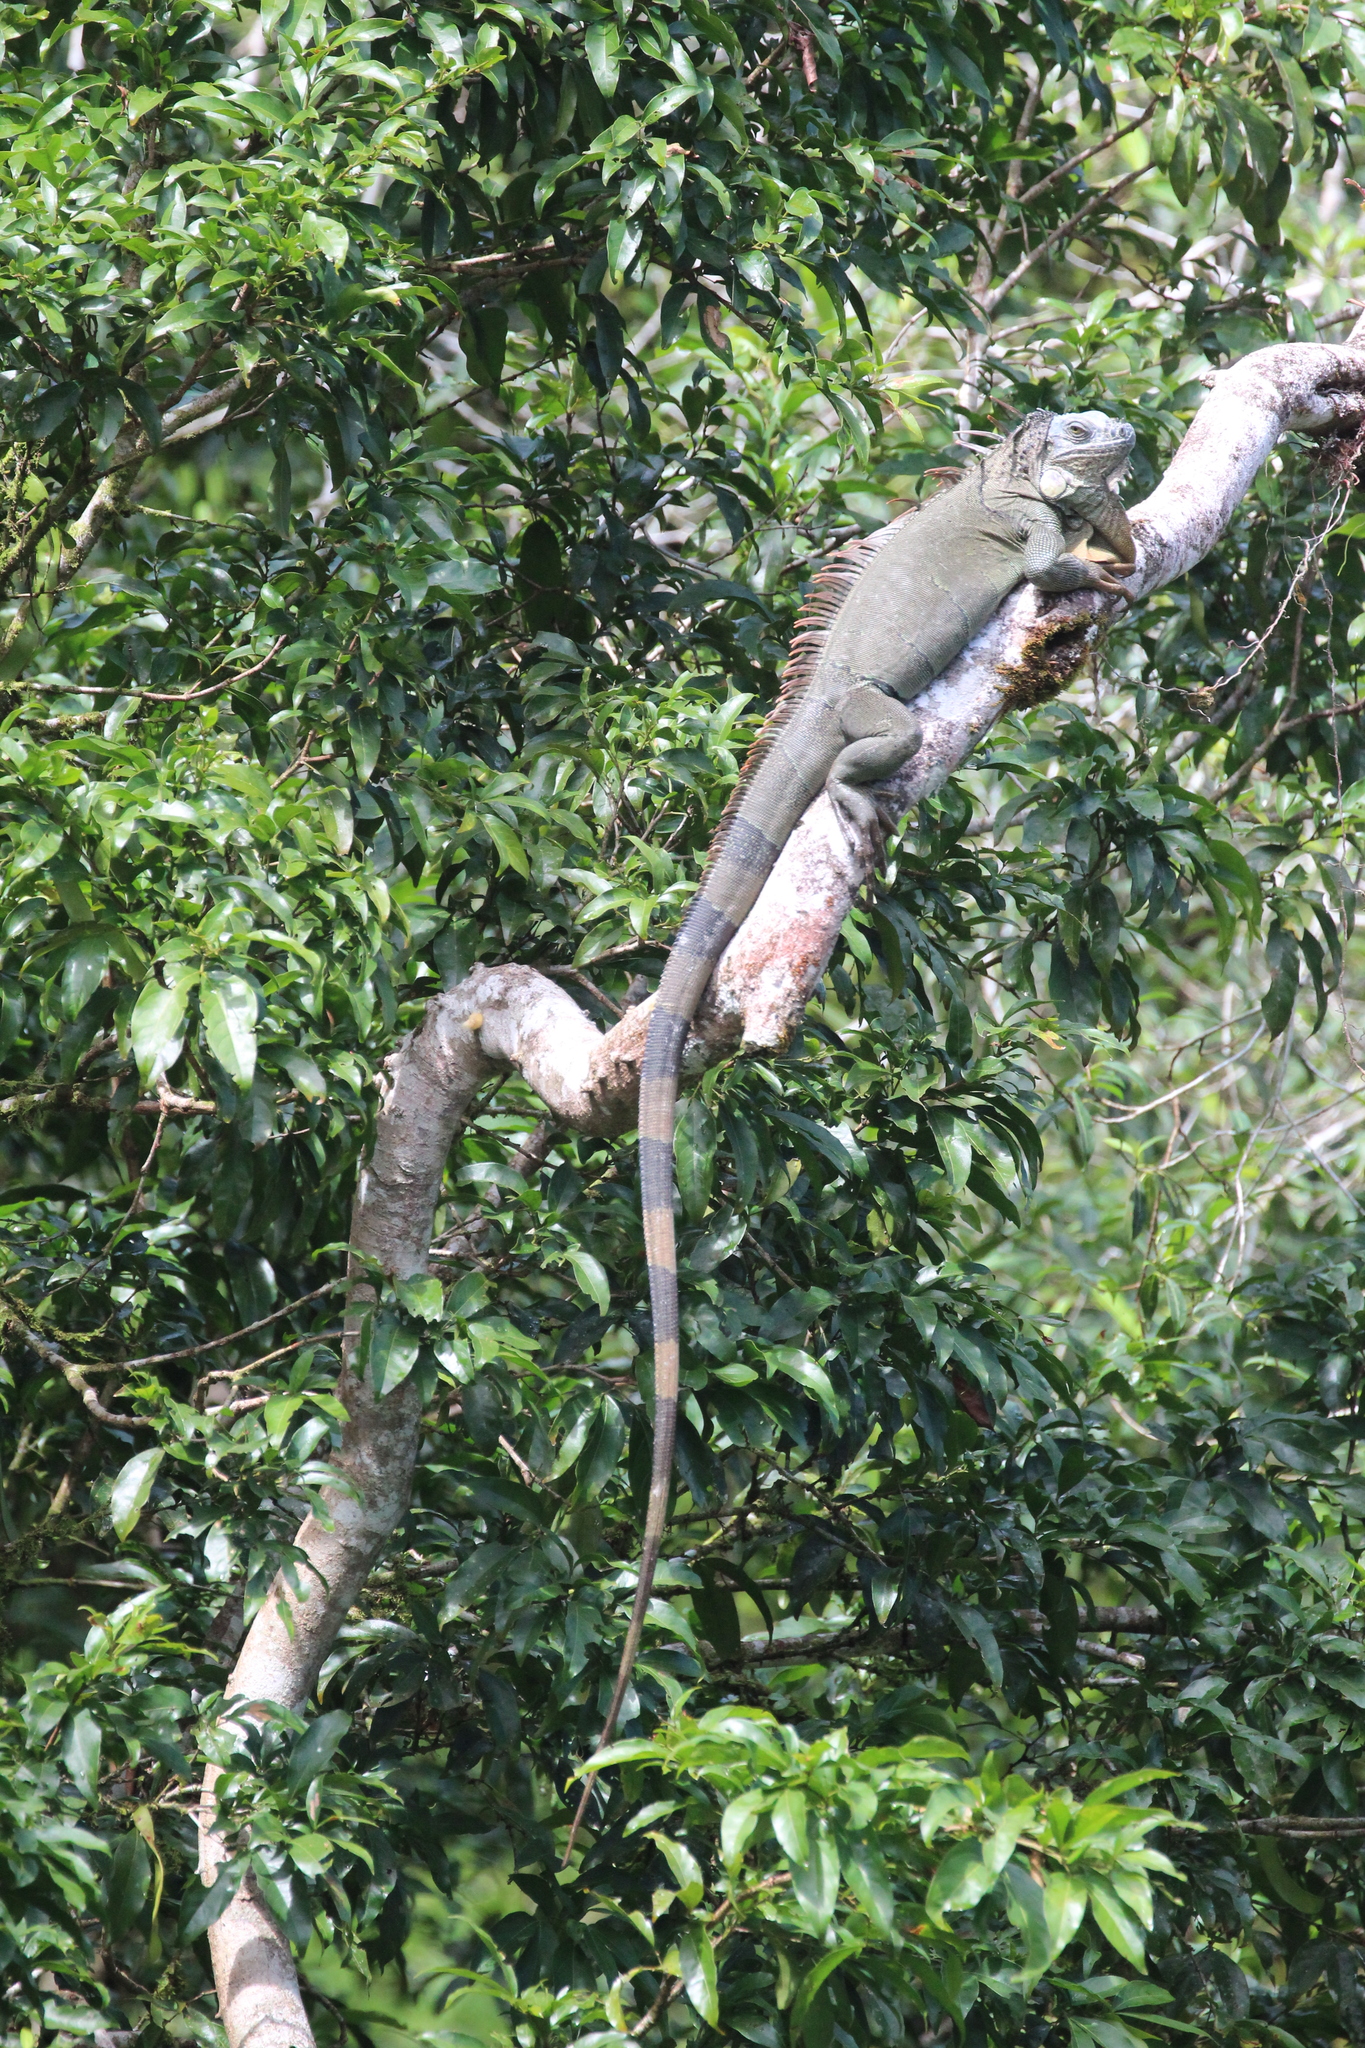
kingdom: Animalia
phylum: Chordata
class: Squamata
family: Iguanidae
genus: Iguana
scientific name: Iguana iguana
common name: Green iguana
